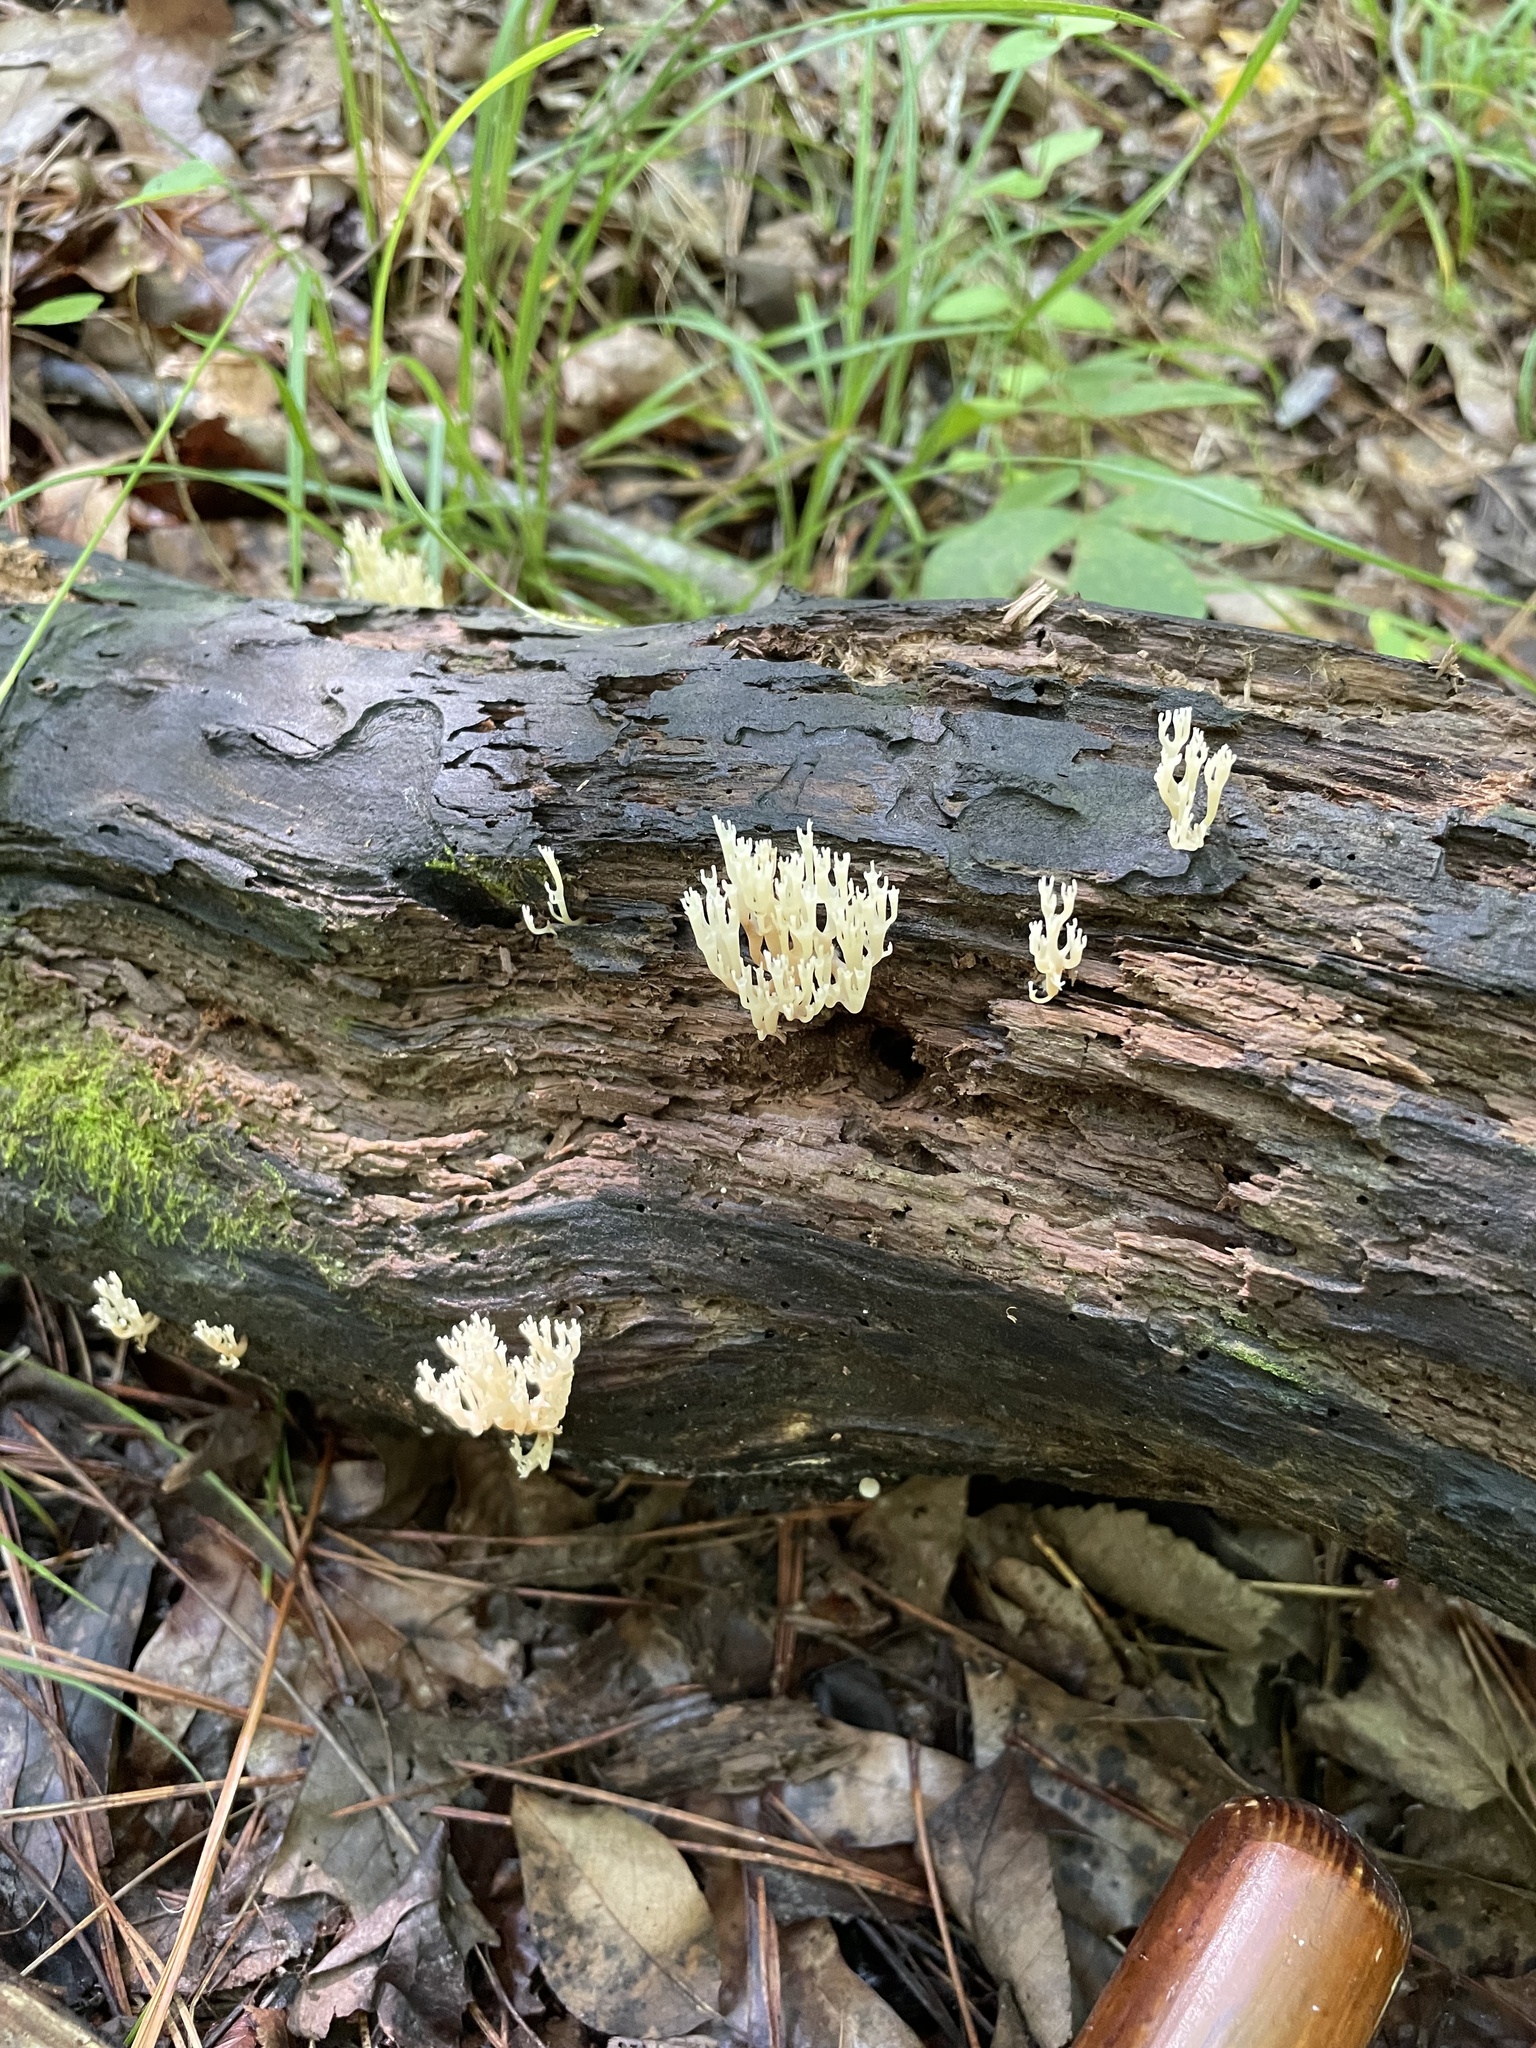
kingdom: Fungi
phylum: Basidiomycota
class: Agaricomycetes
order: Russulales
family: Auriscalpiaceae
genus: Artomyces
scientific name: Artomyces pyxidatus
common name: Crown-tipped coral fungus
